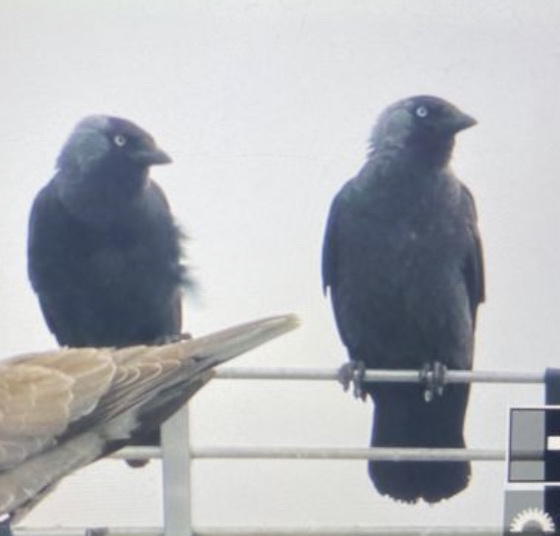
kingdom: Animalia
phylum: Chordata
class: Aves
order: Passeriformes
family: Corvidae
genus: Coloeus
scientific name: Coloeus monedula
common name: Western jackdaw
